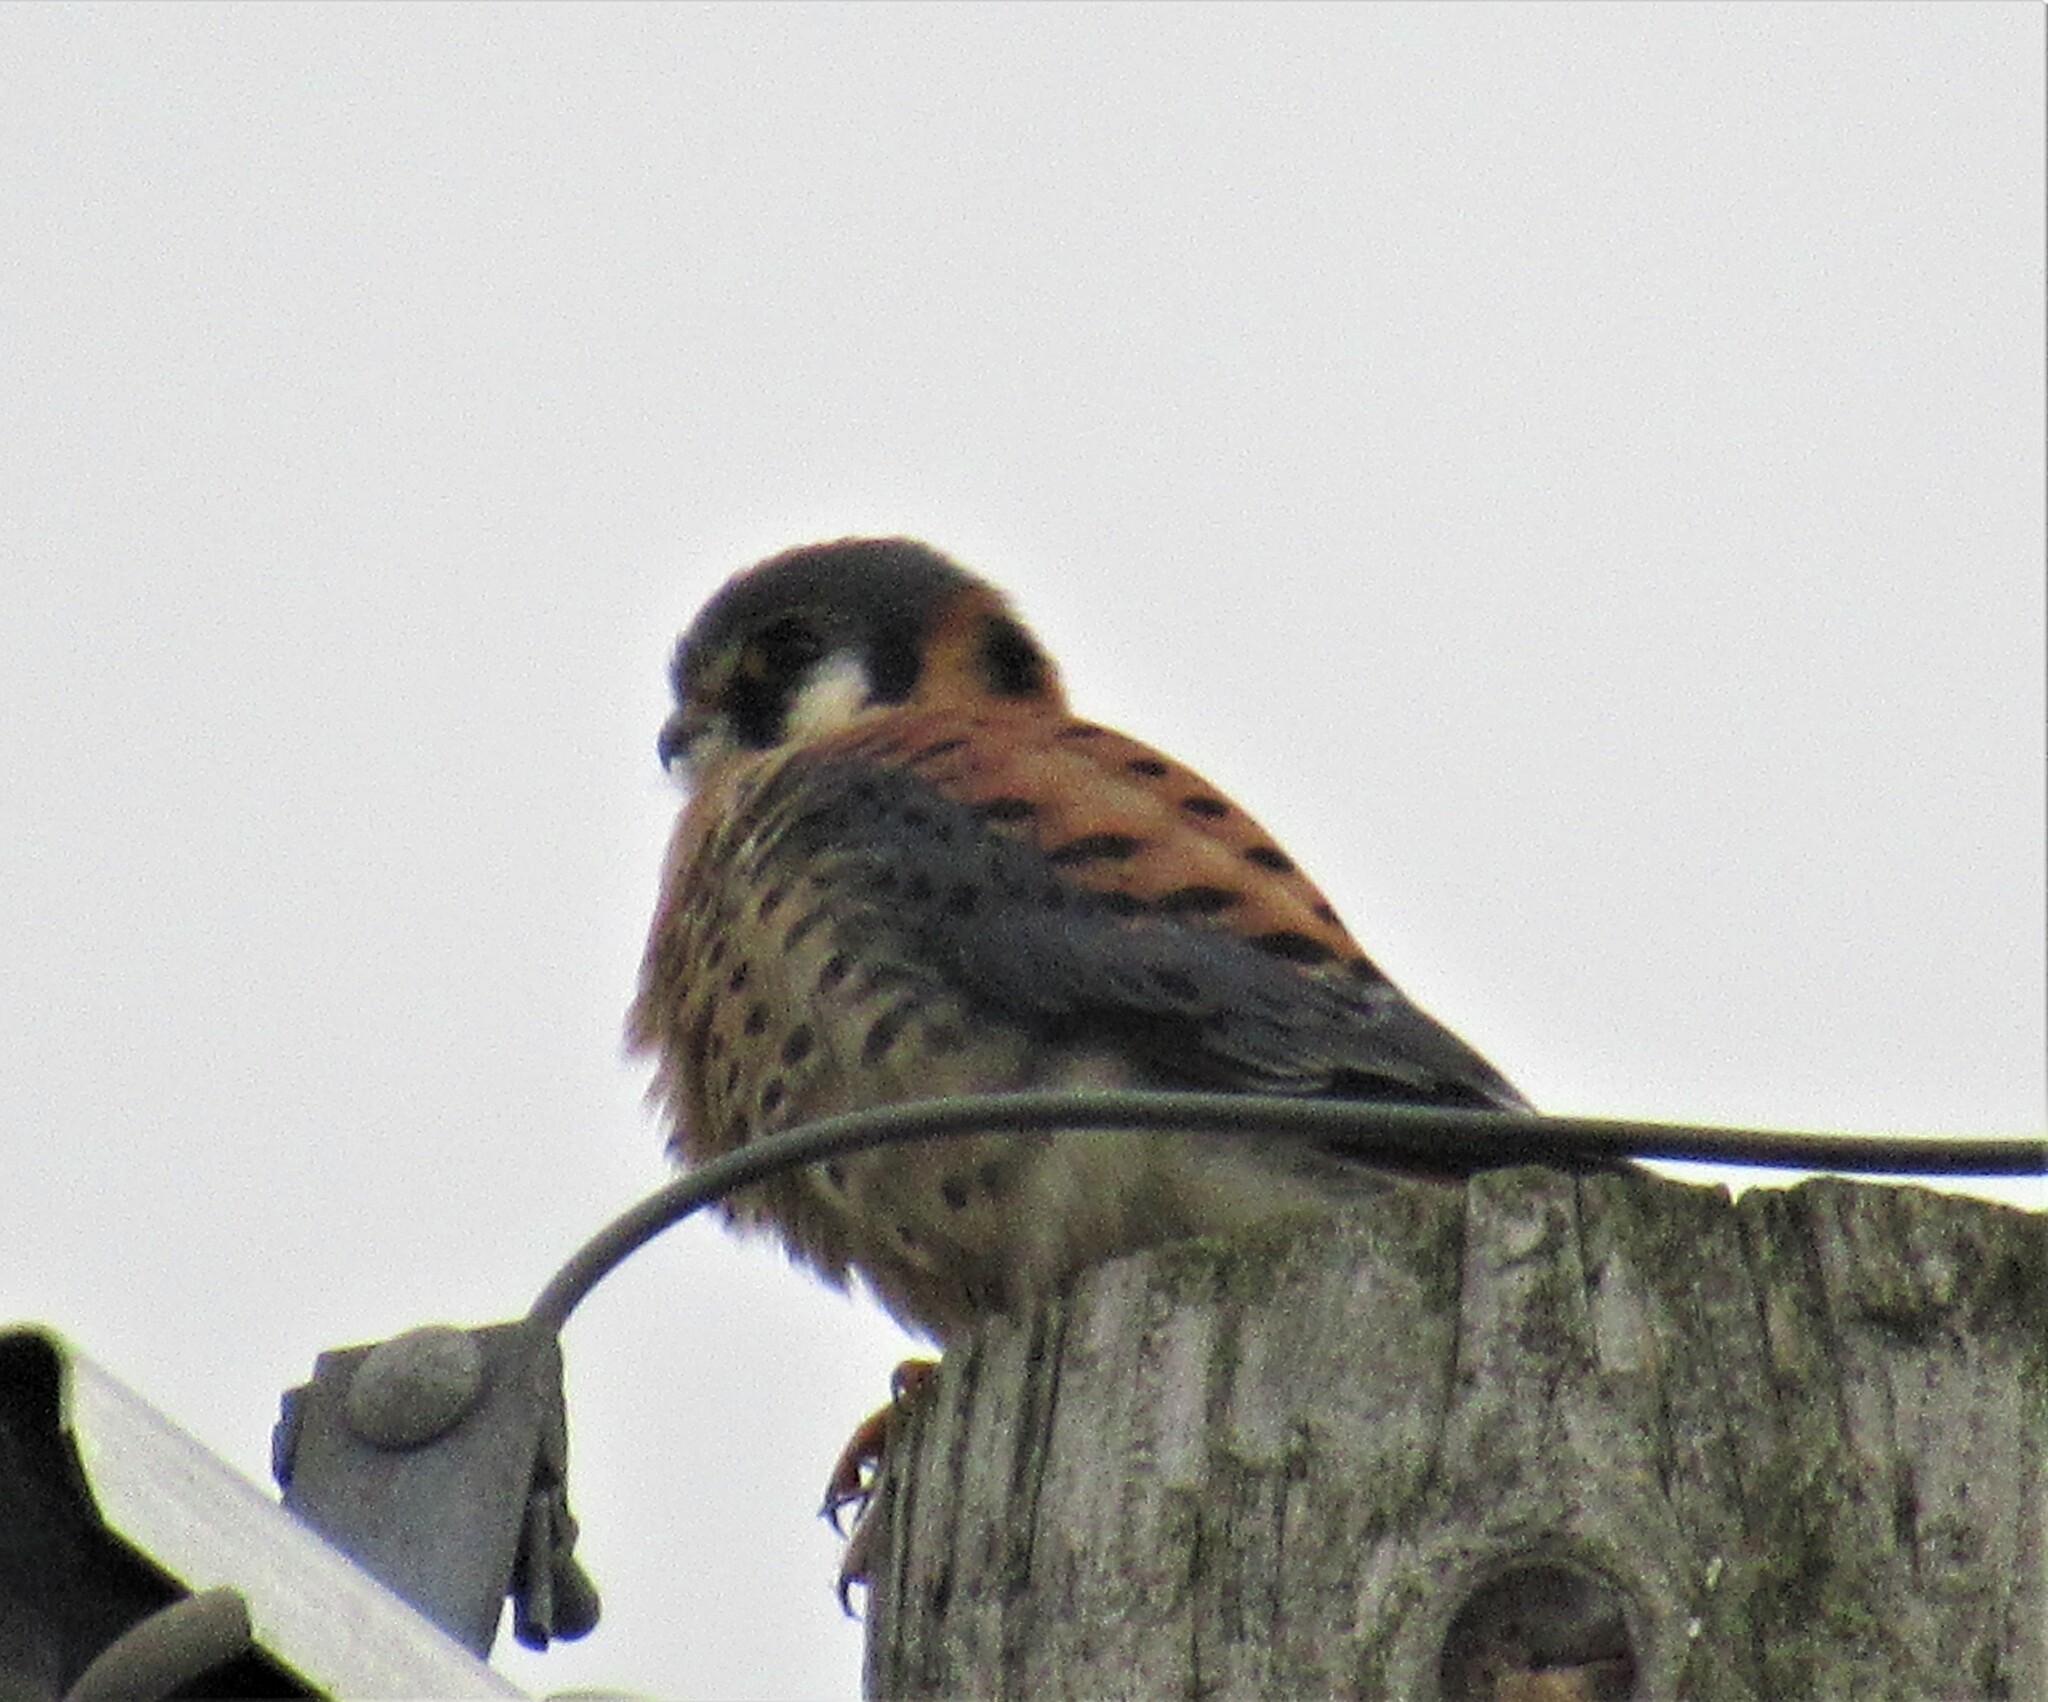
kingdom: Animalia
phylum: Chordata
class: Aves
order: Falconiformes
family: Falconidae
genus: Falco
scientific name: Falco sparverius
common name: American kestrel
